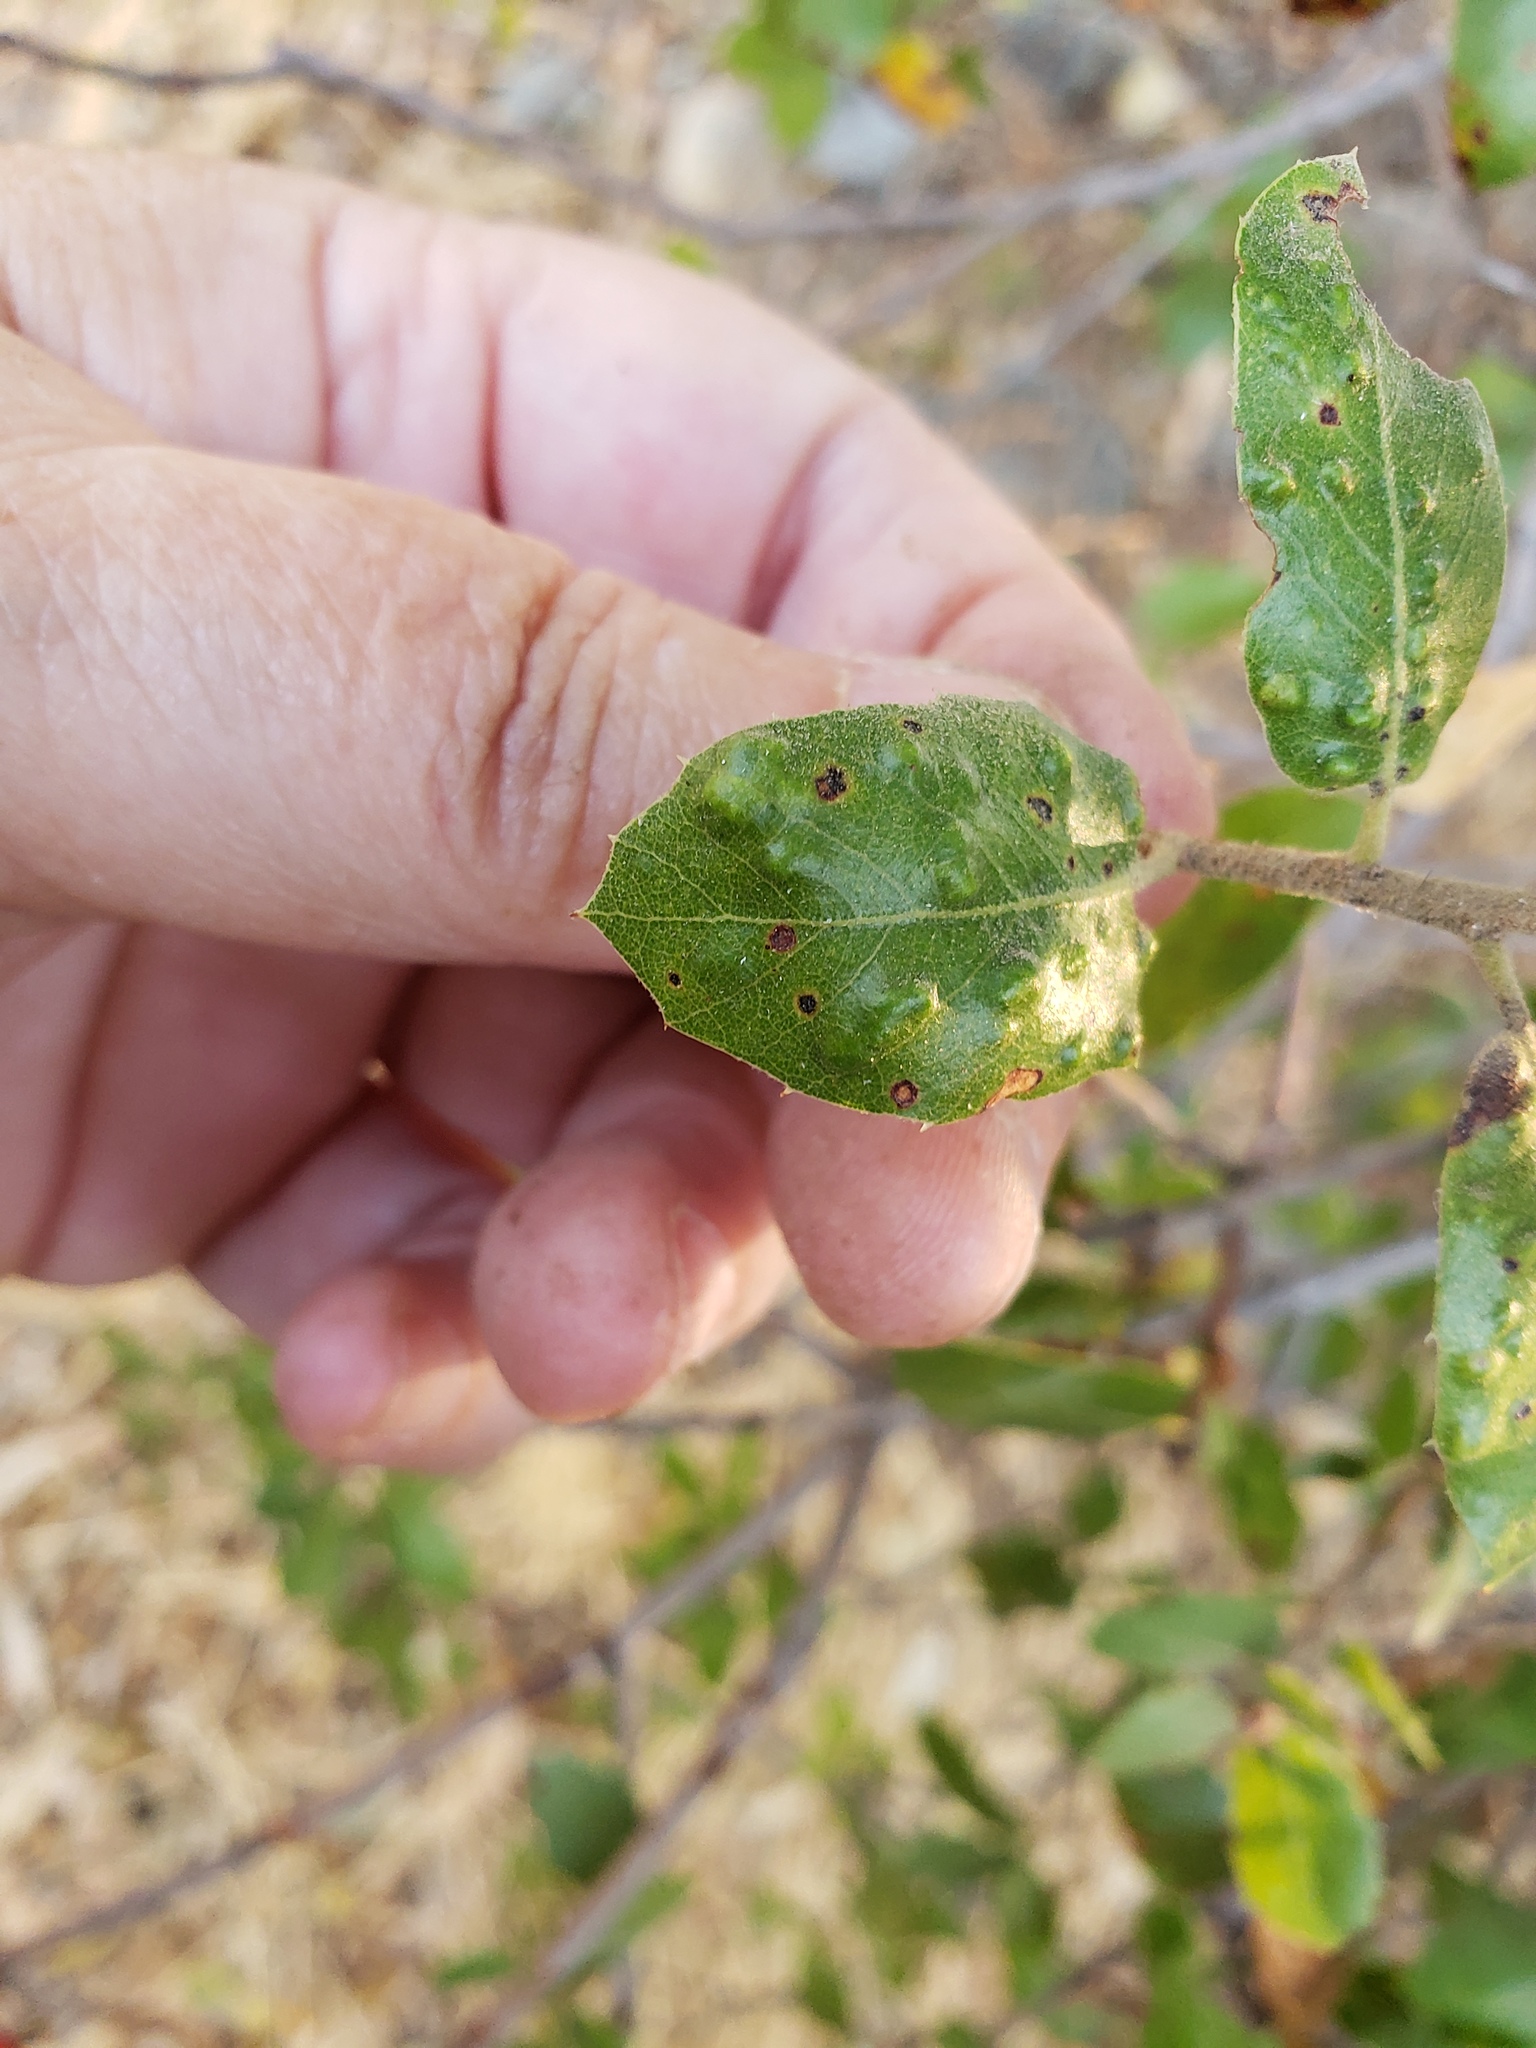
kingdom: Animalia
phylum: Arthropoda
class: Arachnida
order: Trombidiformes
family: Eriophyidae
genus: Aceria
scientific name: Aceria
